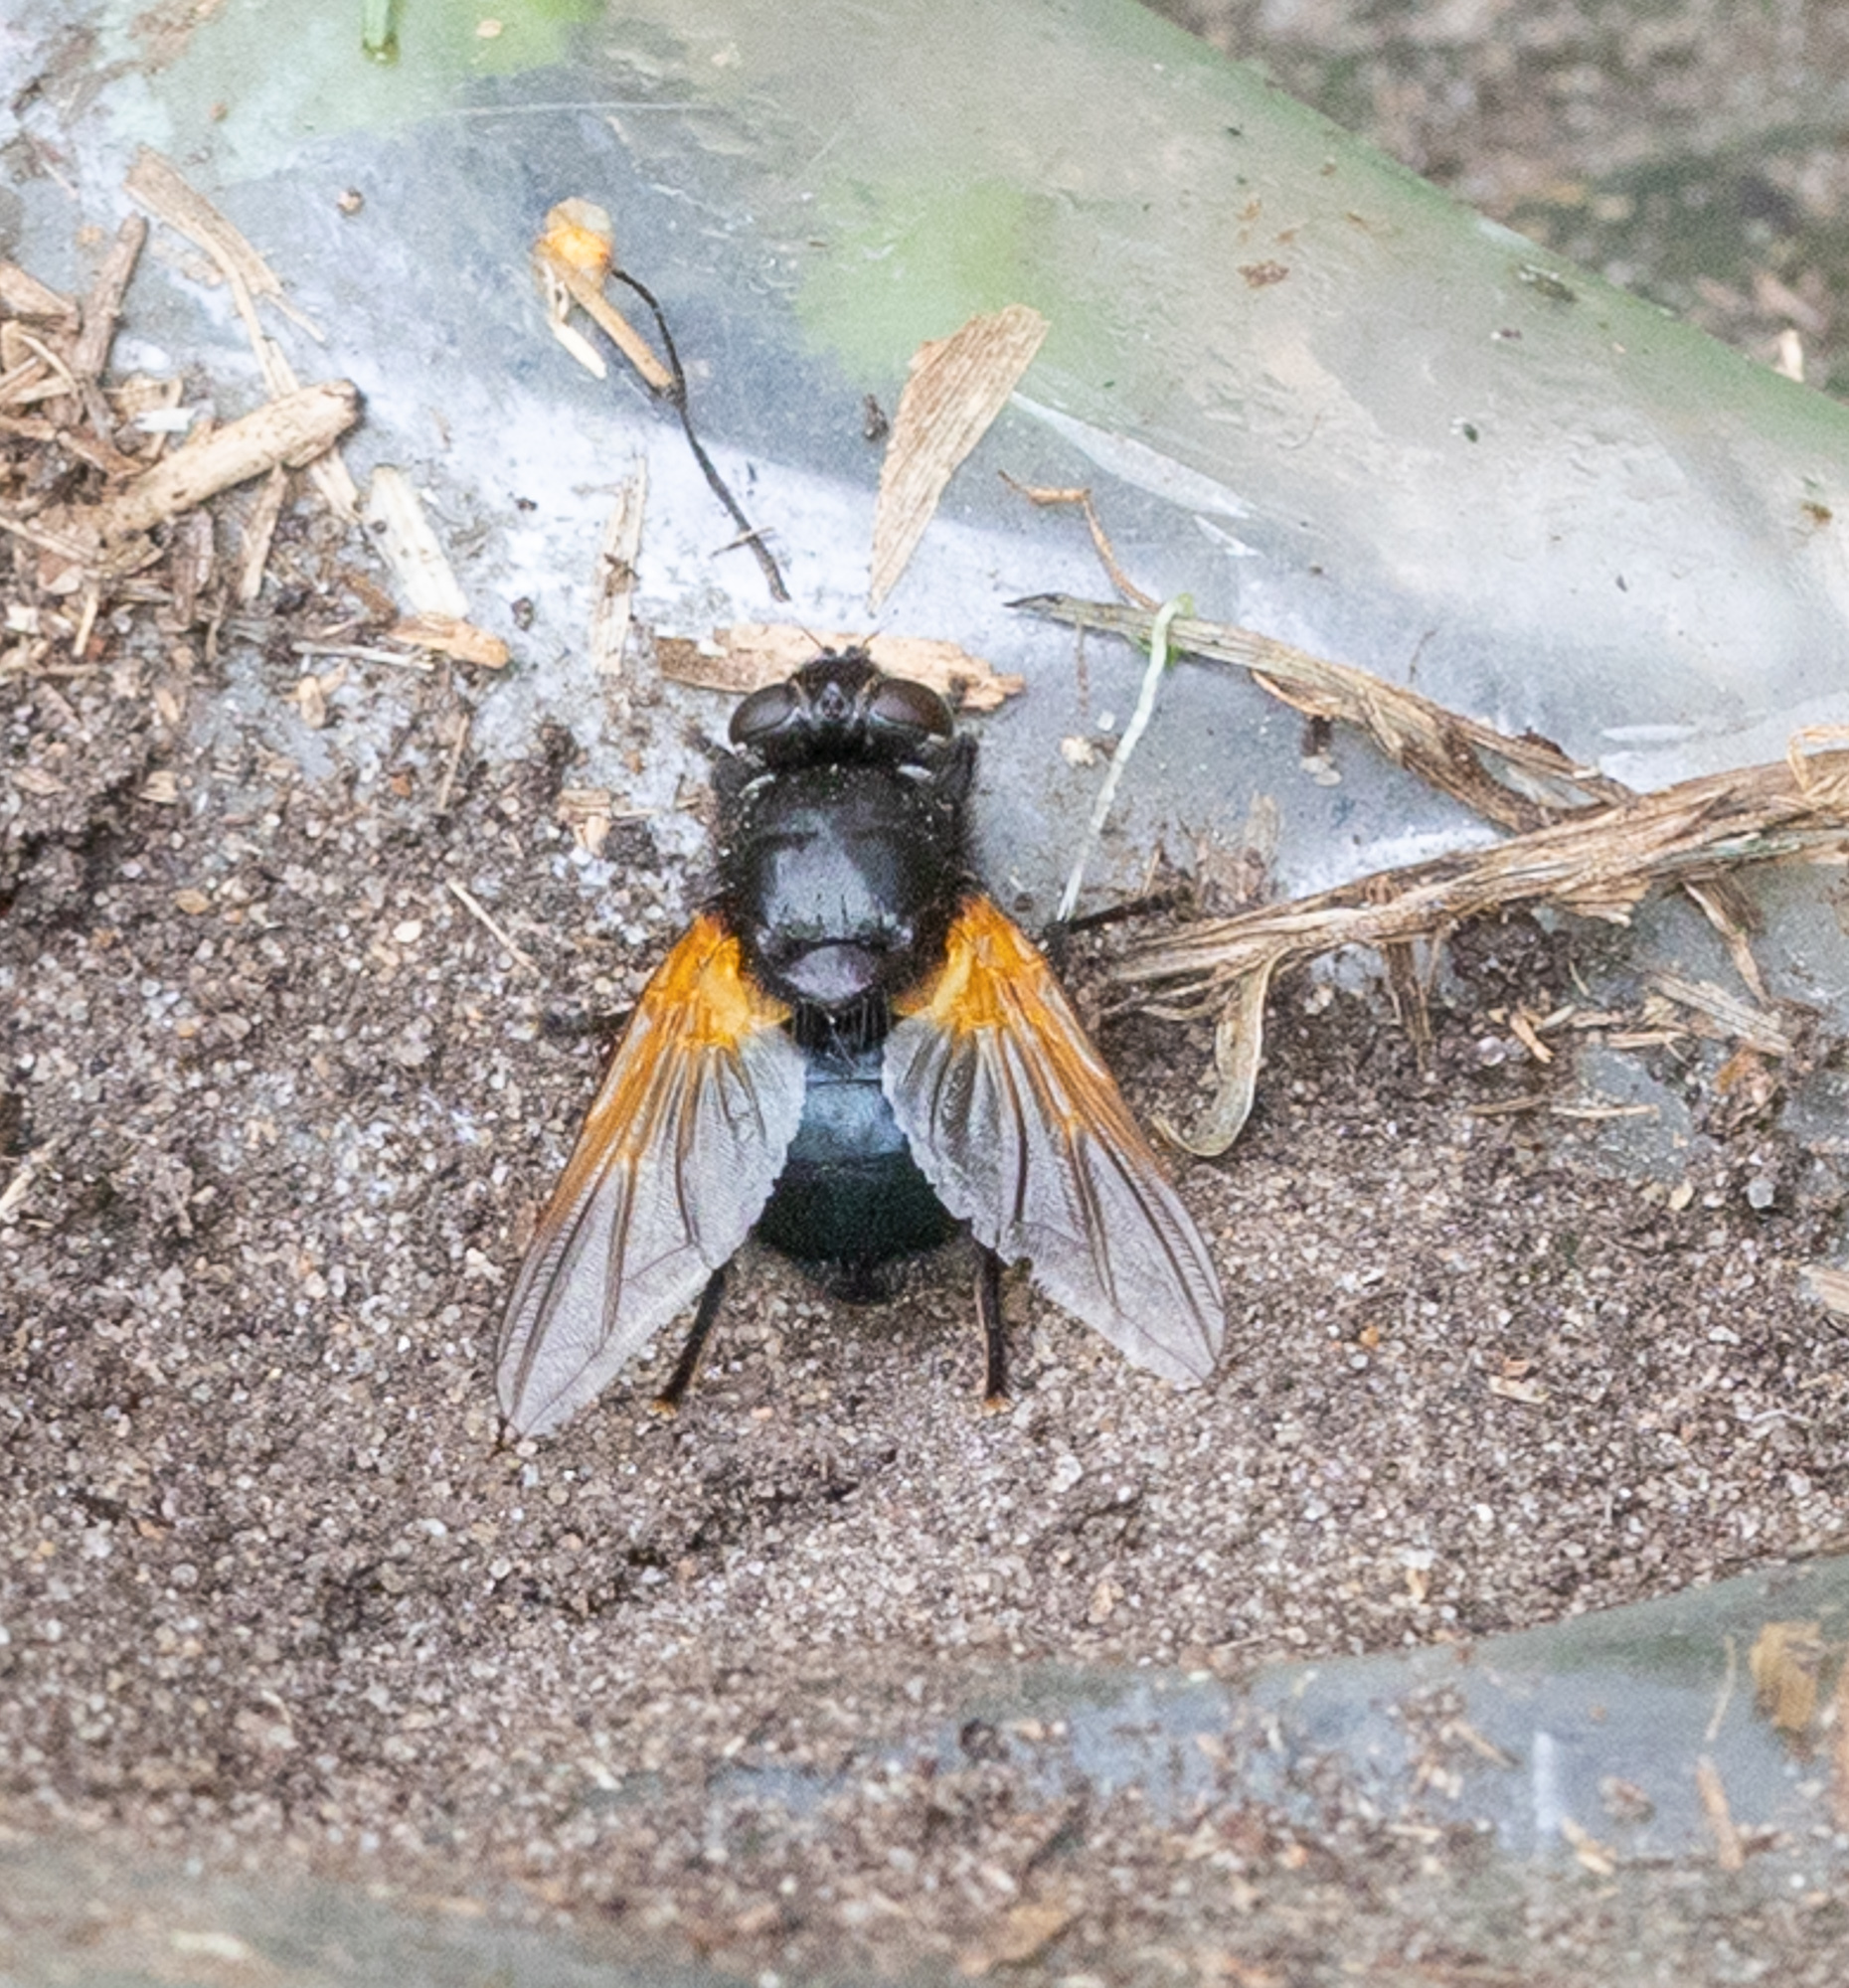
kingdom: Animalia
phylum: Arthropoda
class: Insecta
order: Diptera
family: Muscidae
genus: Mesembrina
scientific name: Mesembrina meridiana
